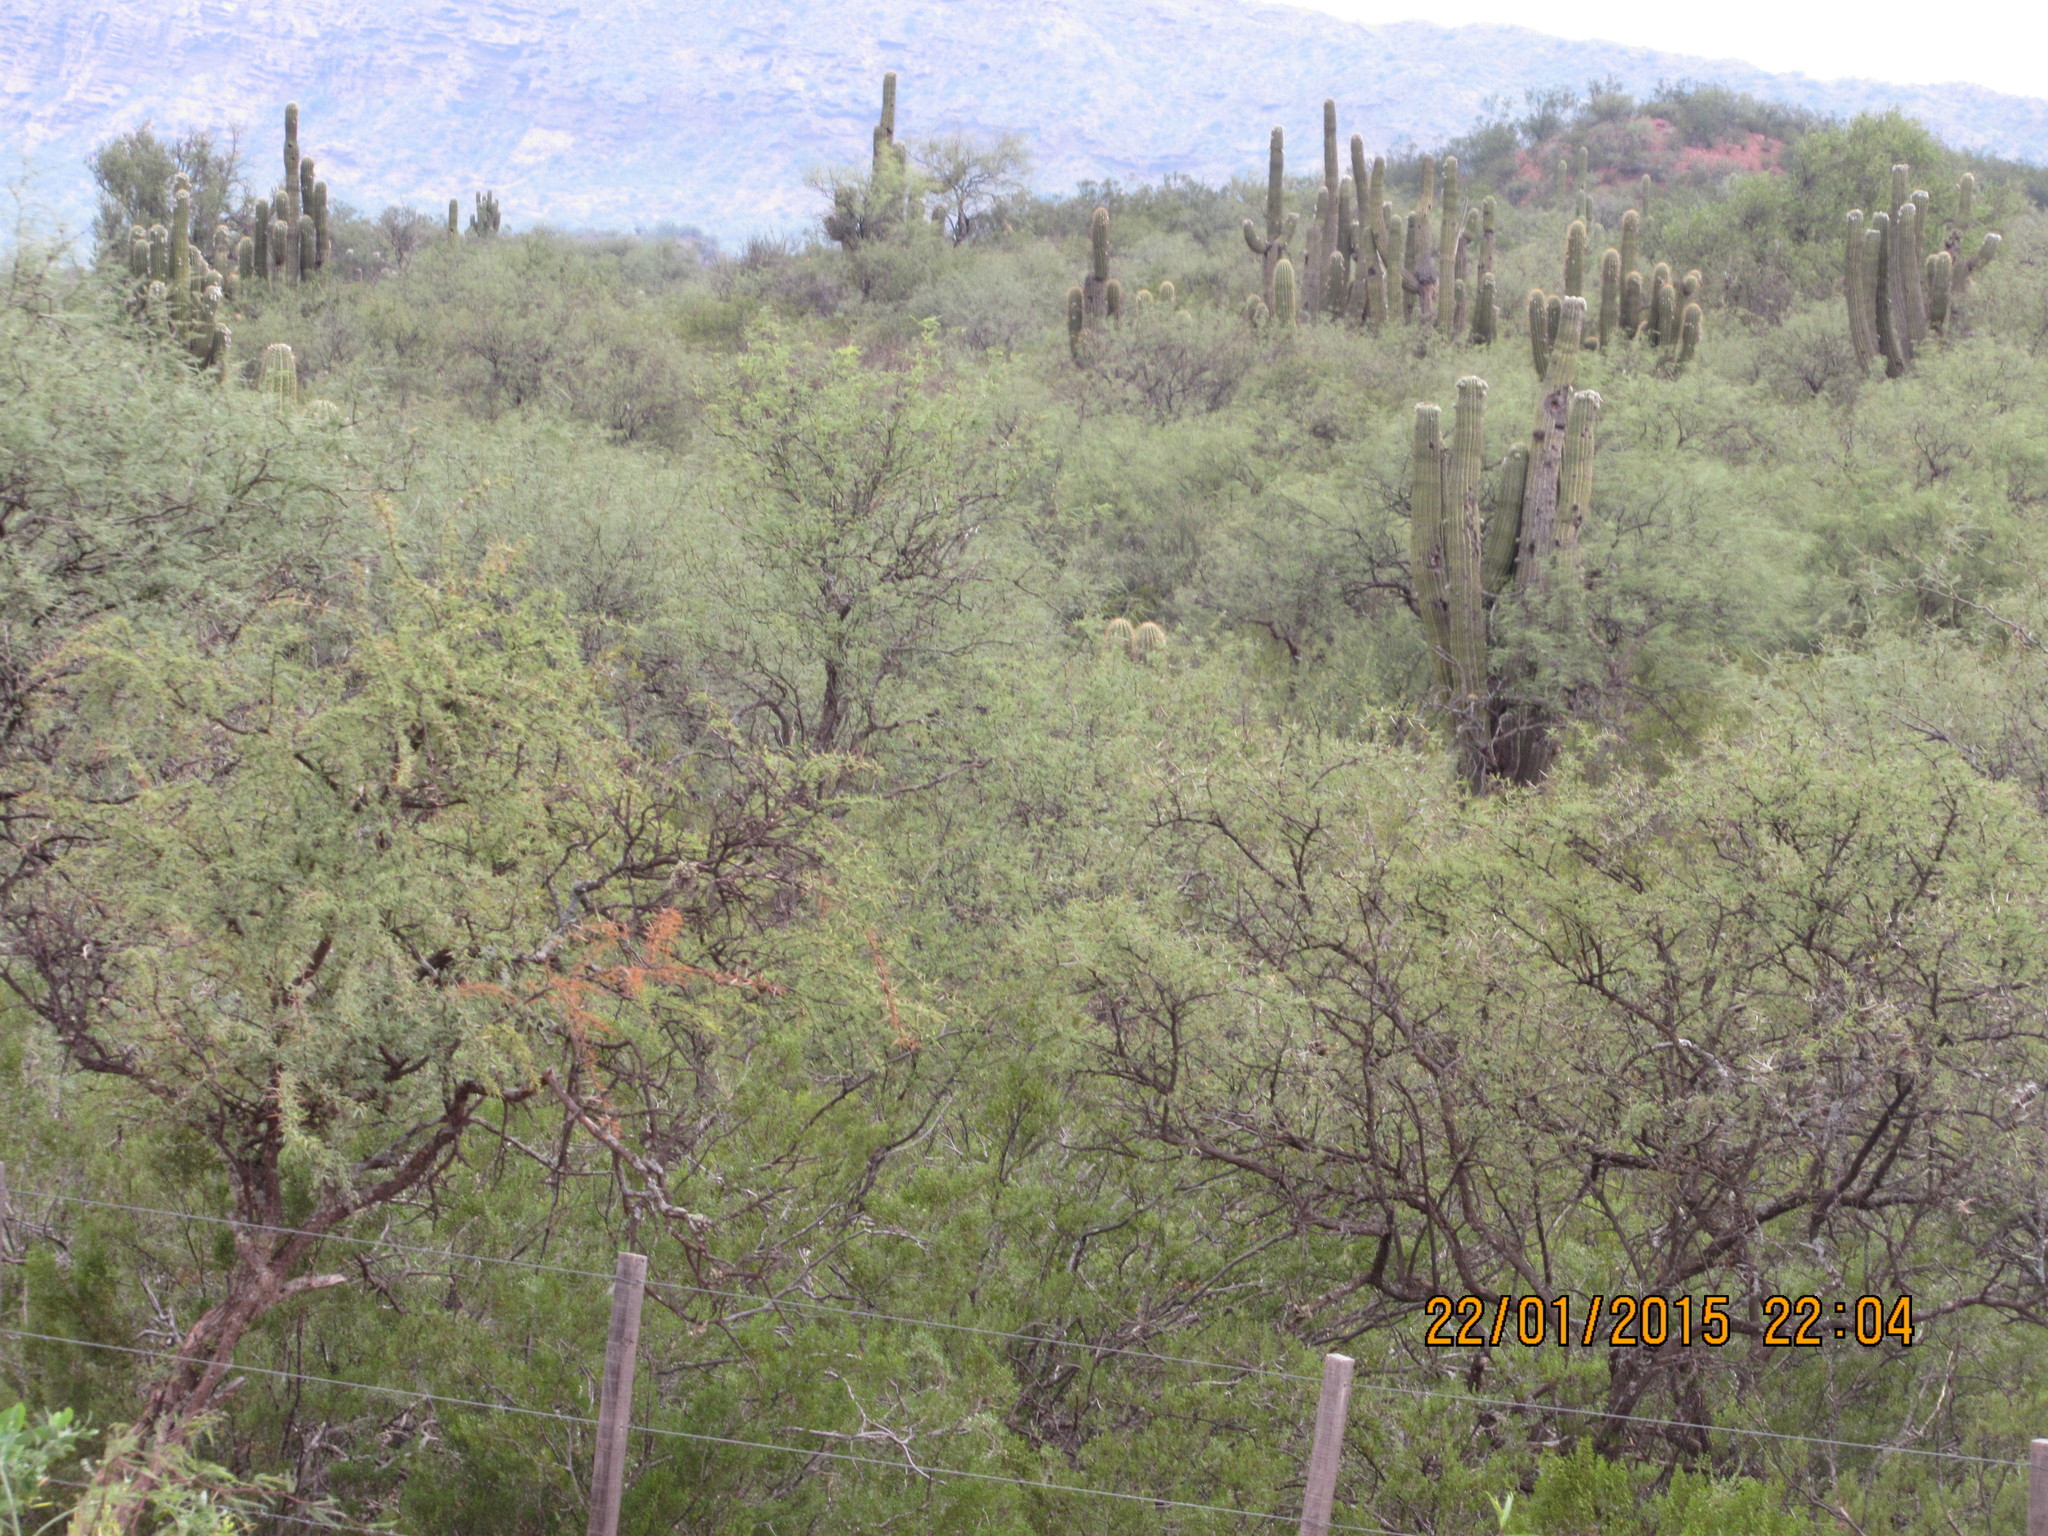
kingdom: Plantae
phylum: Tracheophyta
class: Magnoliopsida
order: Caryophyllales
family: Cactaceae
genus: Leucostele
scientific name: Leucostele terscheckii
